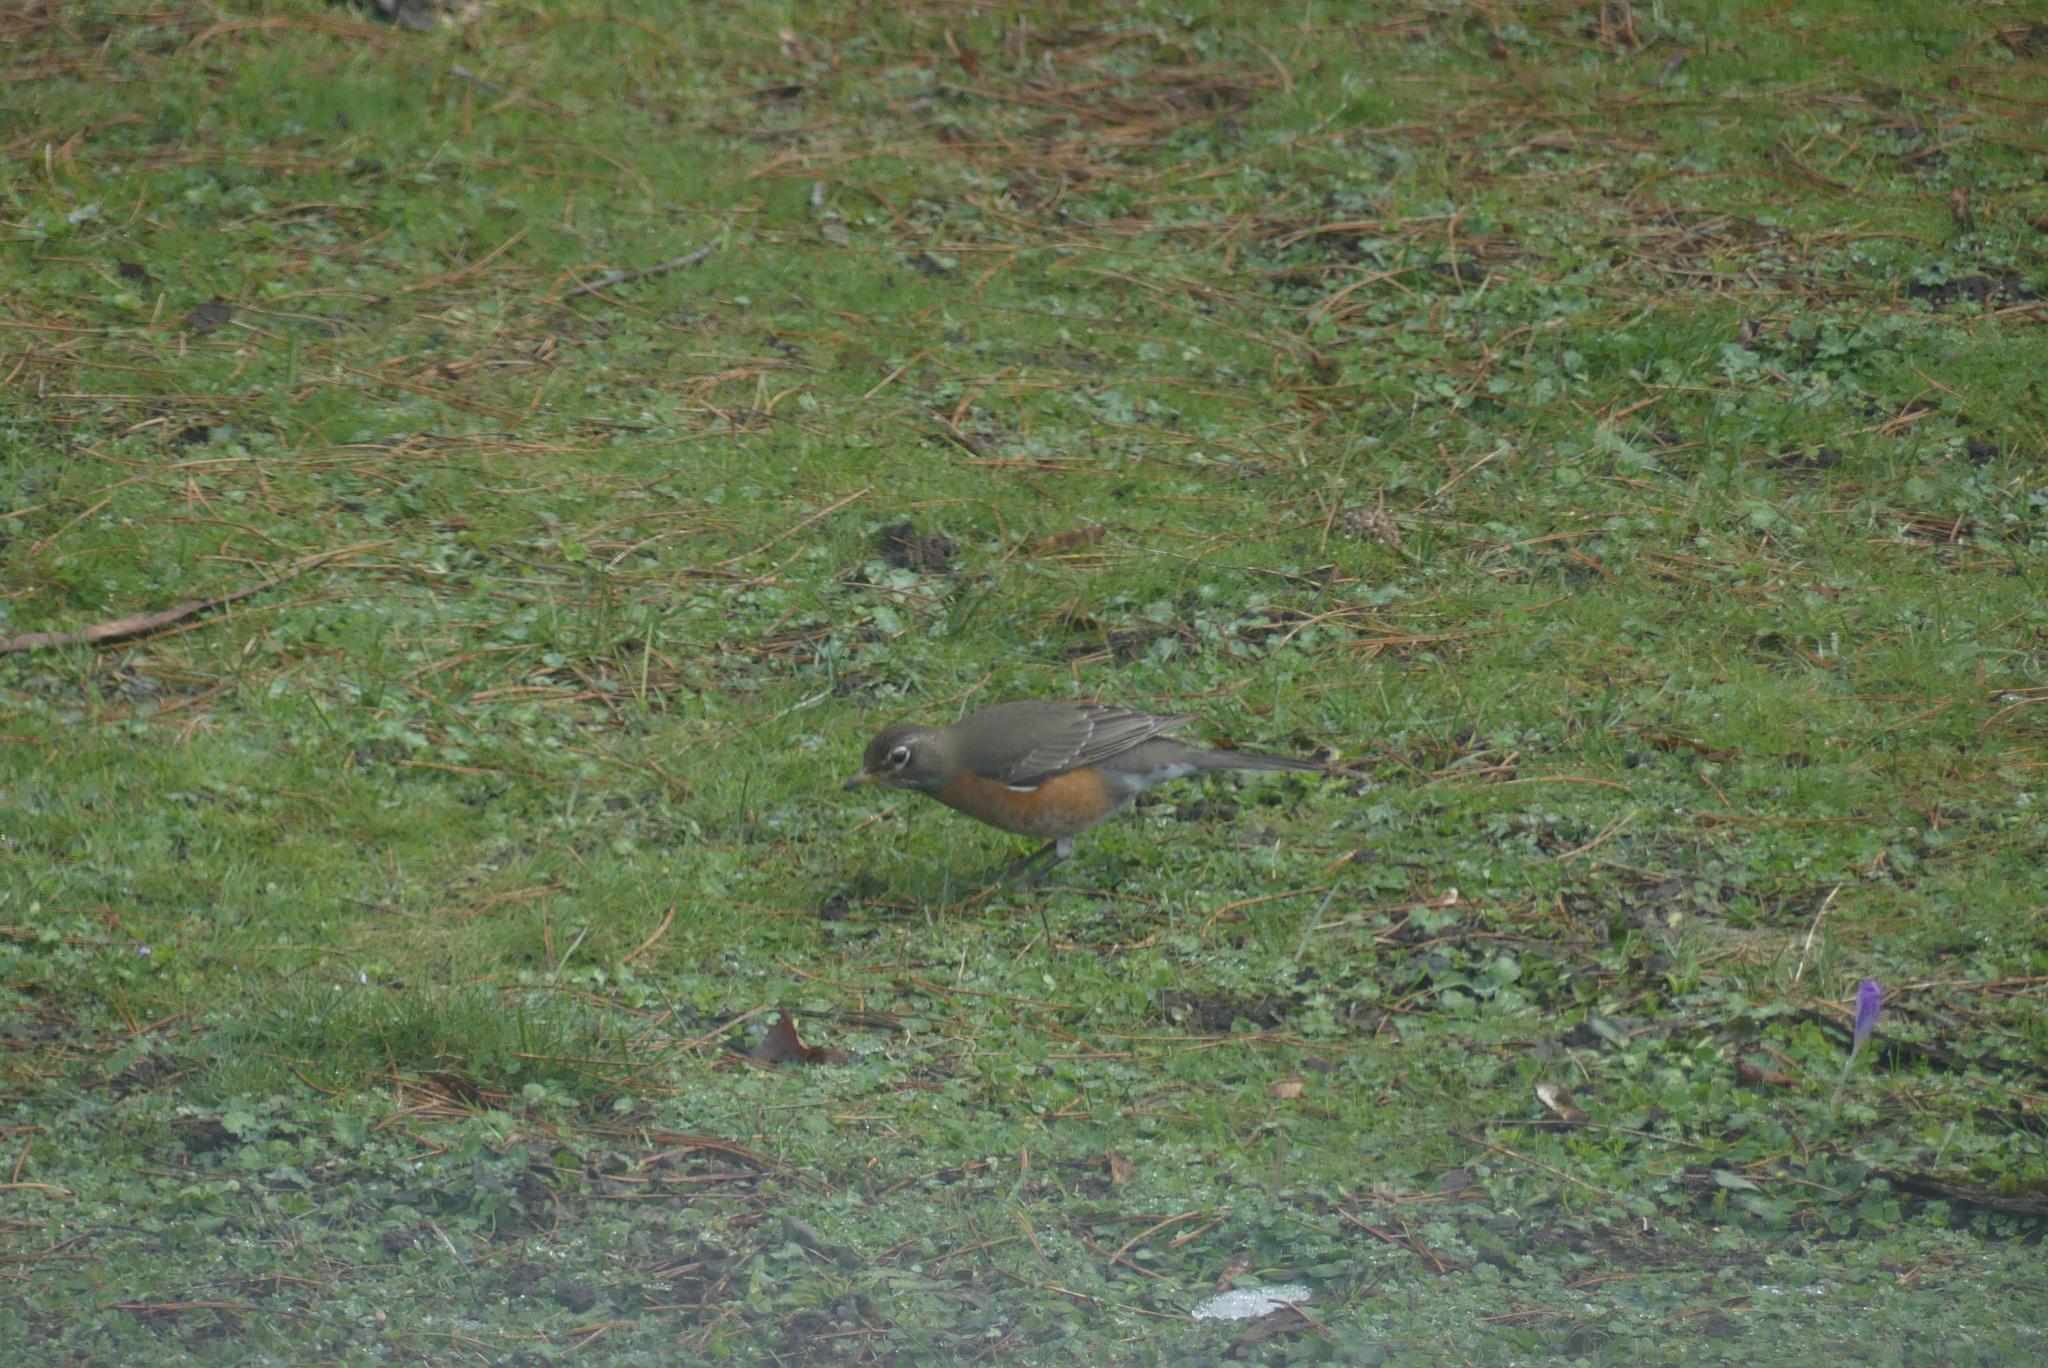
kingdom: Animalia
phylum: Chordata
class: Aves
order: Passeriformes
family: Turdidae
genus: Turdus
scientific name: Turdus migratorius
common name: American robin
